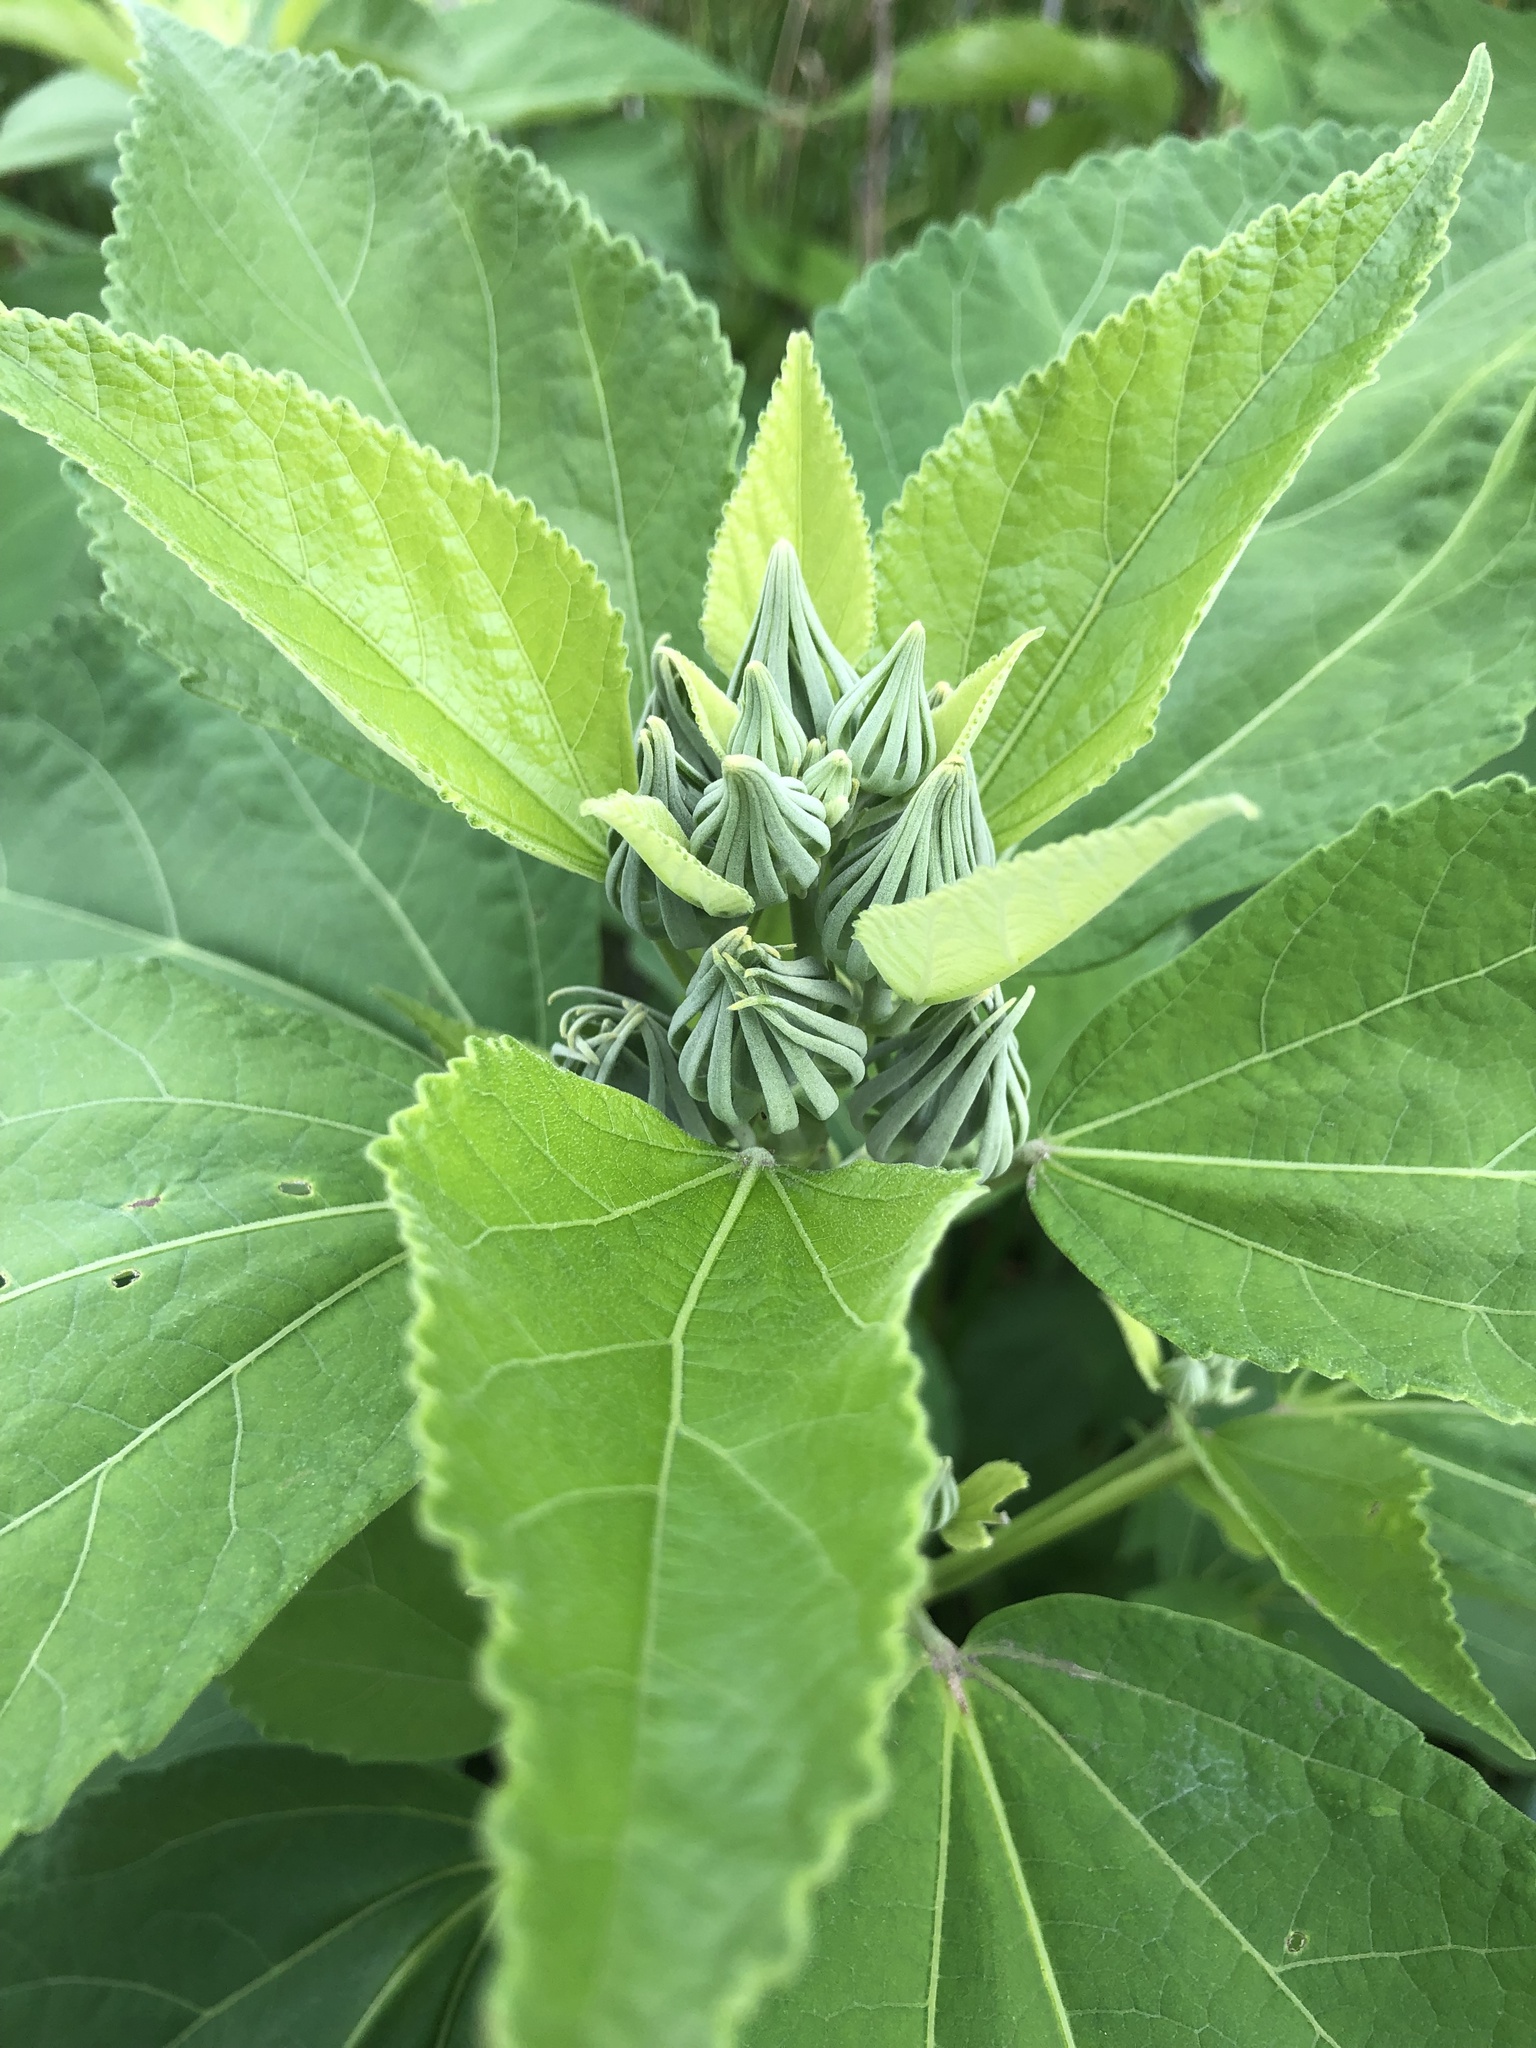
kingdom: Plantae
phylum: Tracheophyta
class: Magnoliopsida
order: Malvales
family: Malvaceae
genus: Hibiscus
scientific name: Hibiscus moscheutos
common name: Common rose-mallow
